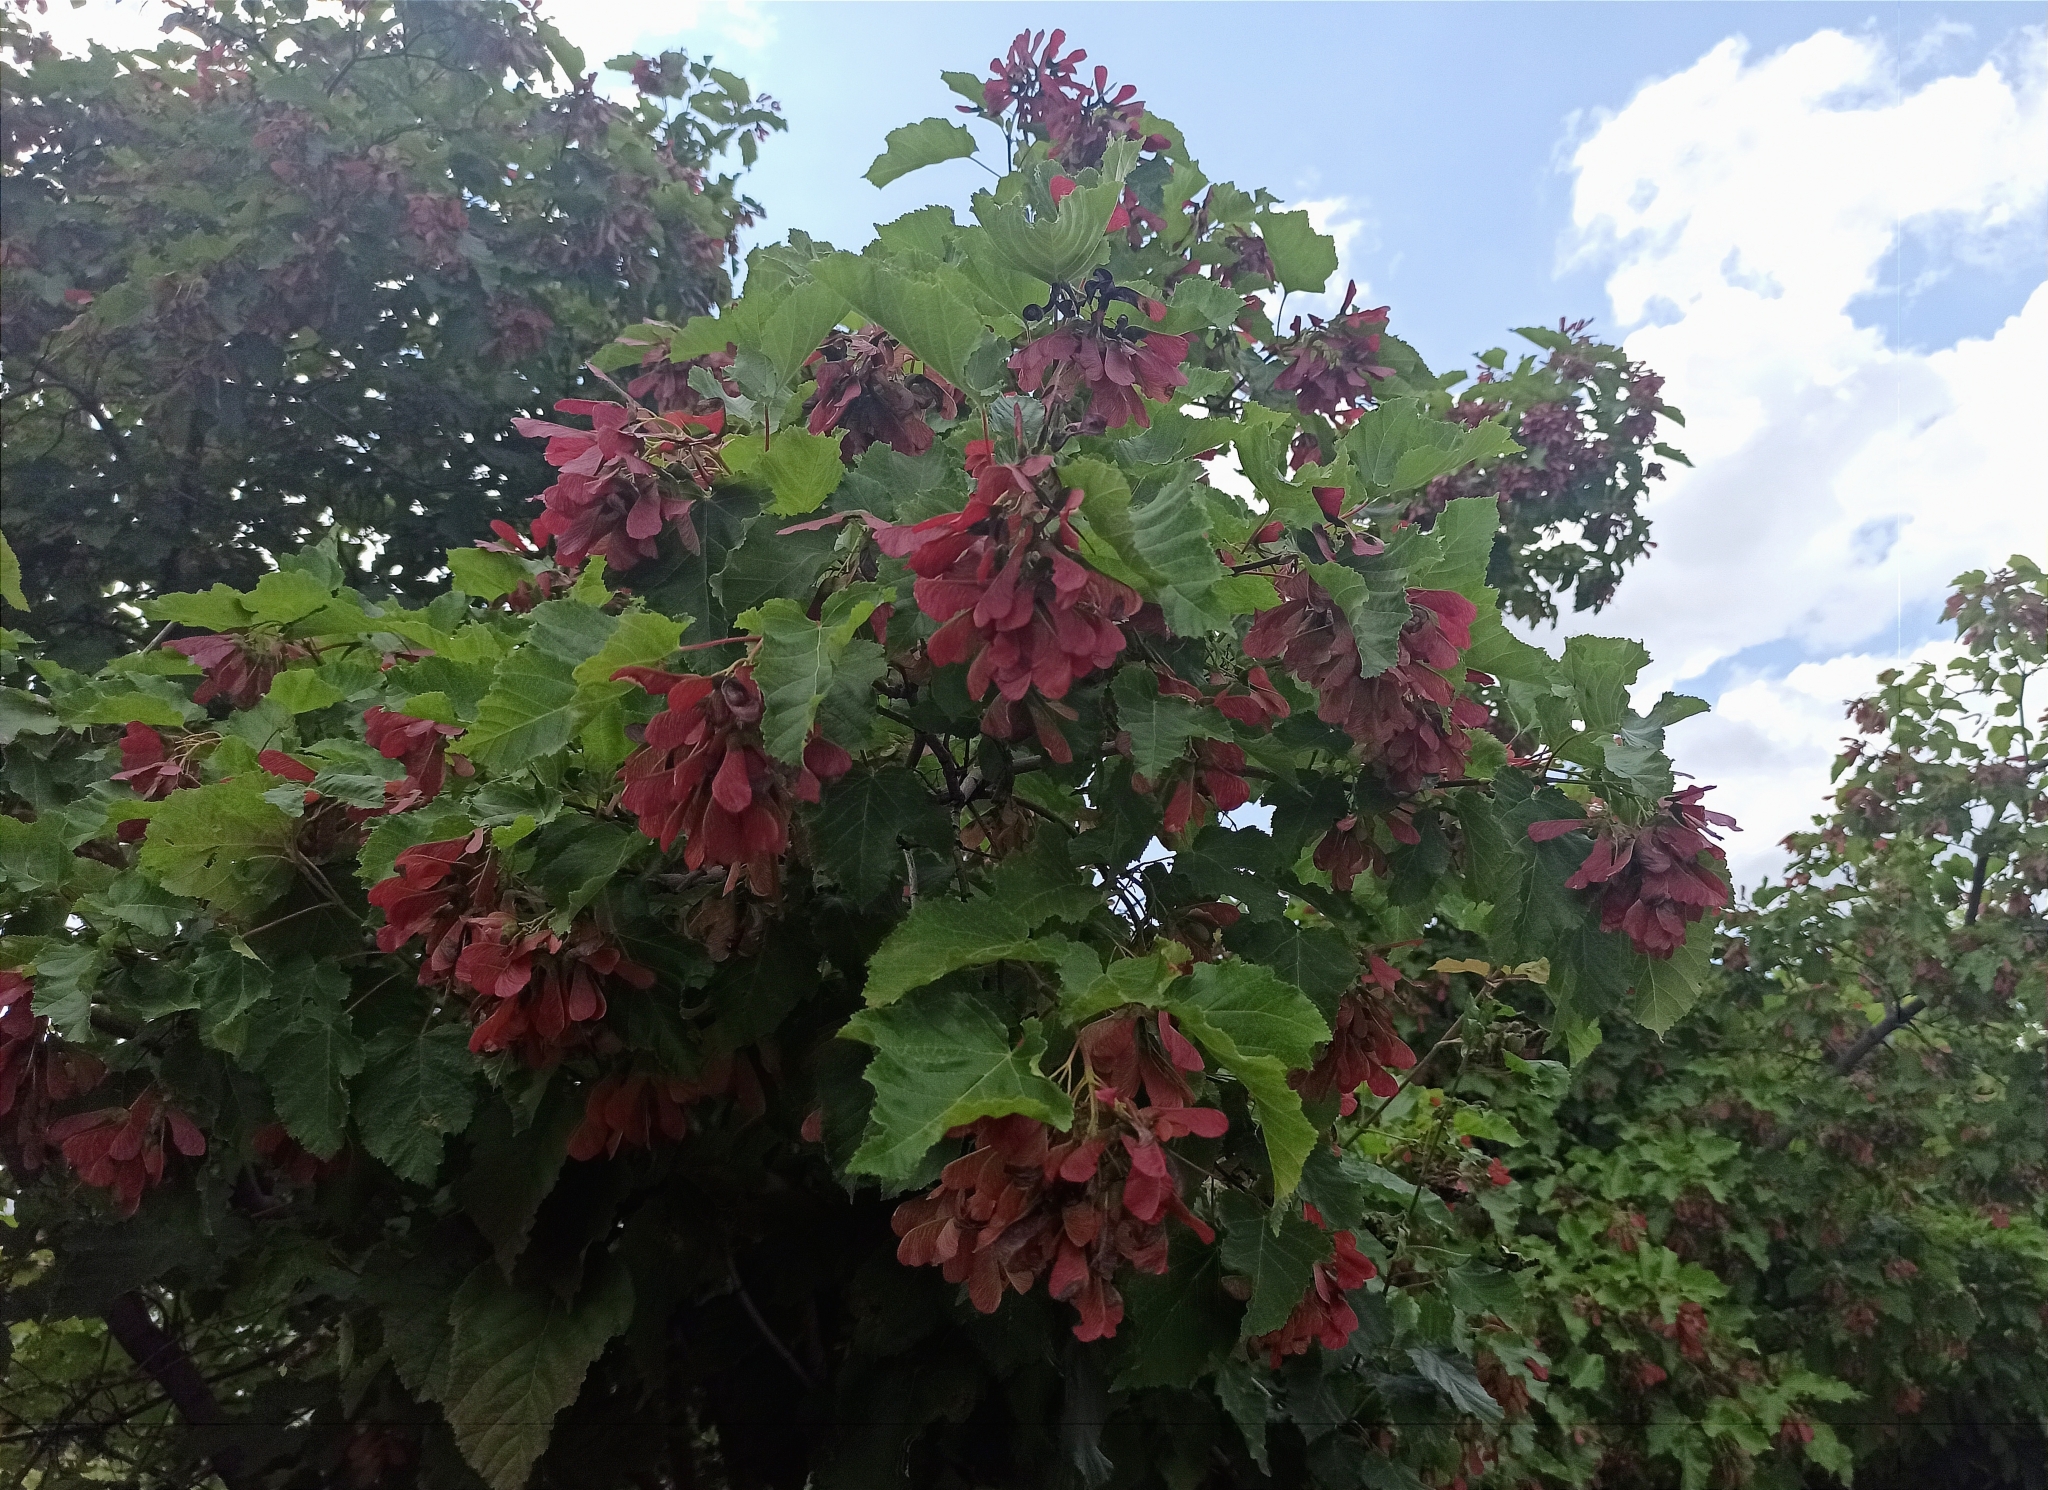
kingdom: Plantae
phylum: Tracheophyta
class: Magnoliopsida
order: Sapindales
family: Sapindaceae
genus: Acer
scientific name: Acer tataricum
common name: Tartar maple
